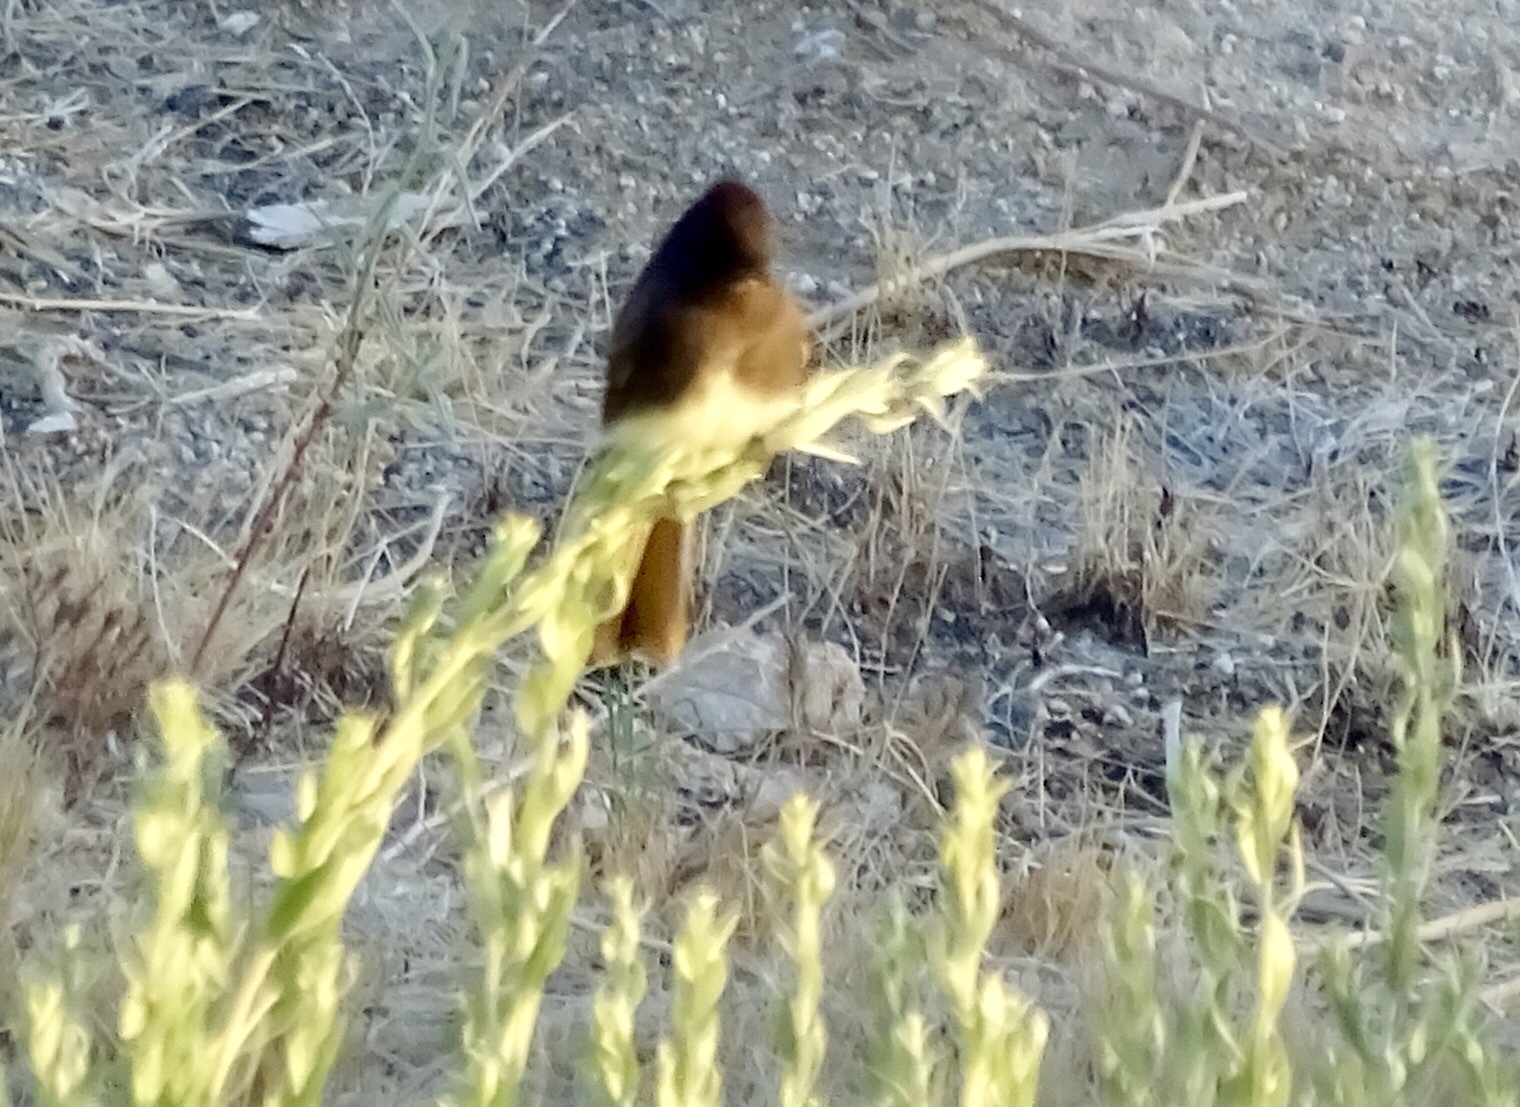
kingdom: Animalia
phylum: Chordata
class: Aves
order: Passeriformes
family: Tyrannidae
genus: Sayornis
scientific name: Sayornis nigricans
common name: Black phoebe
